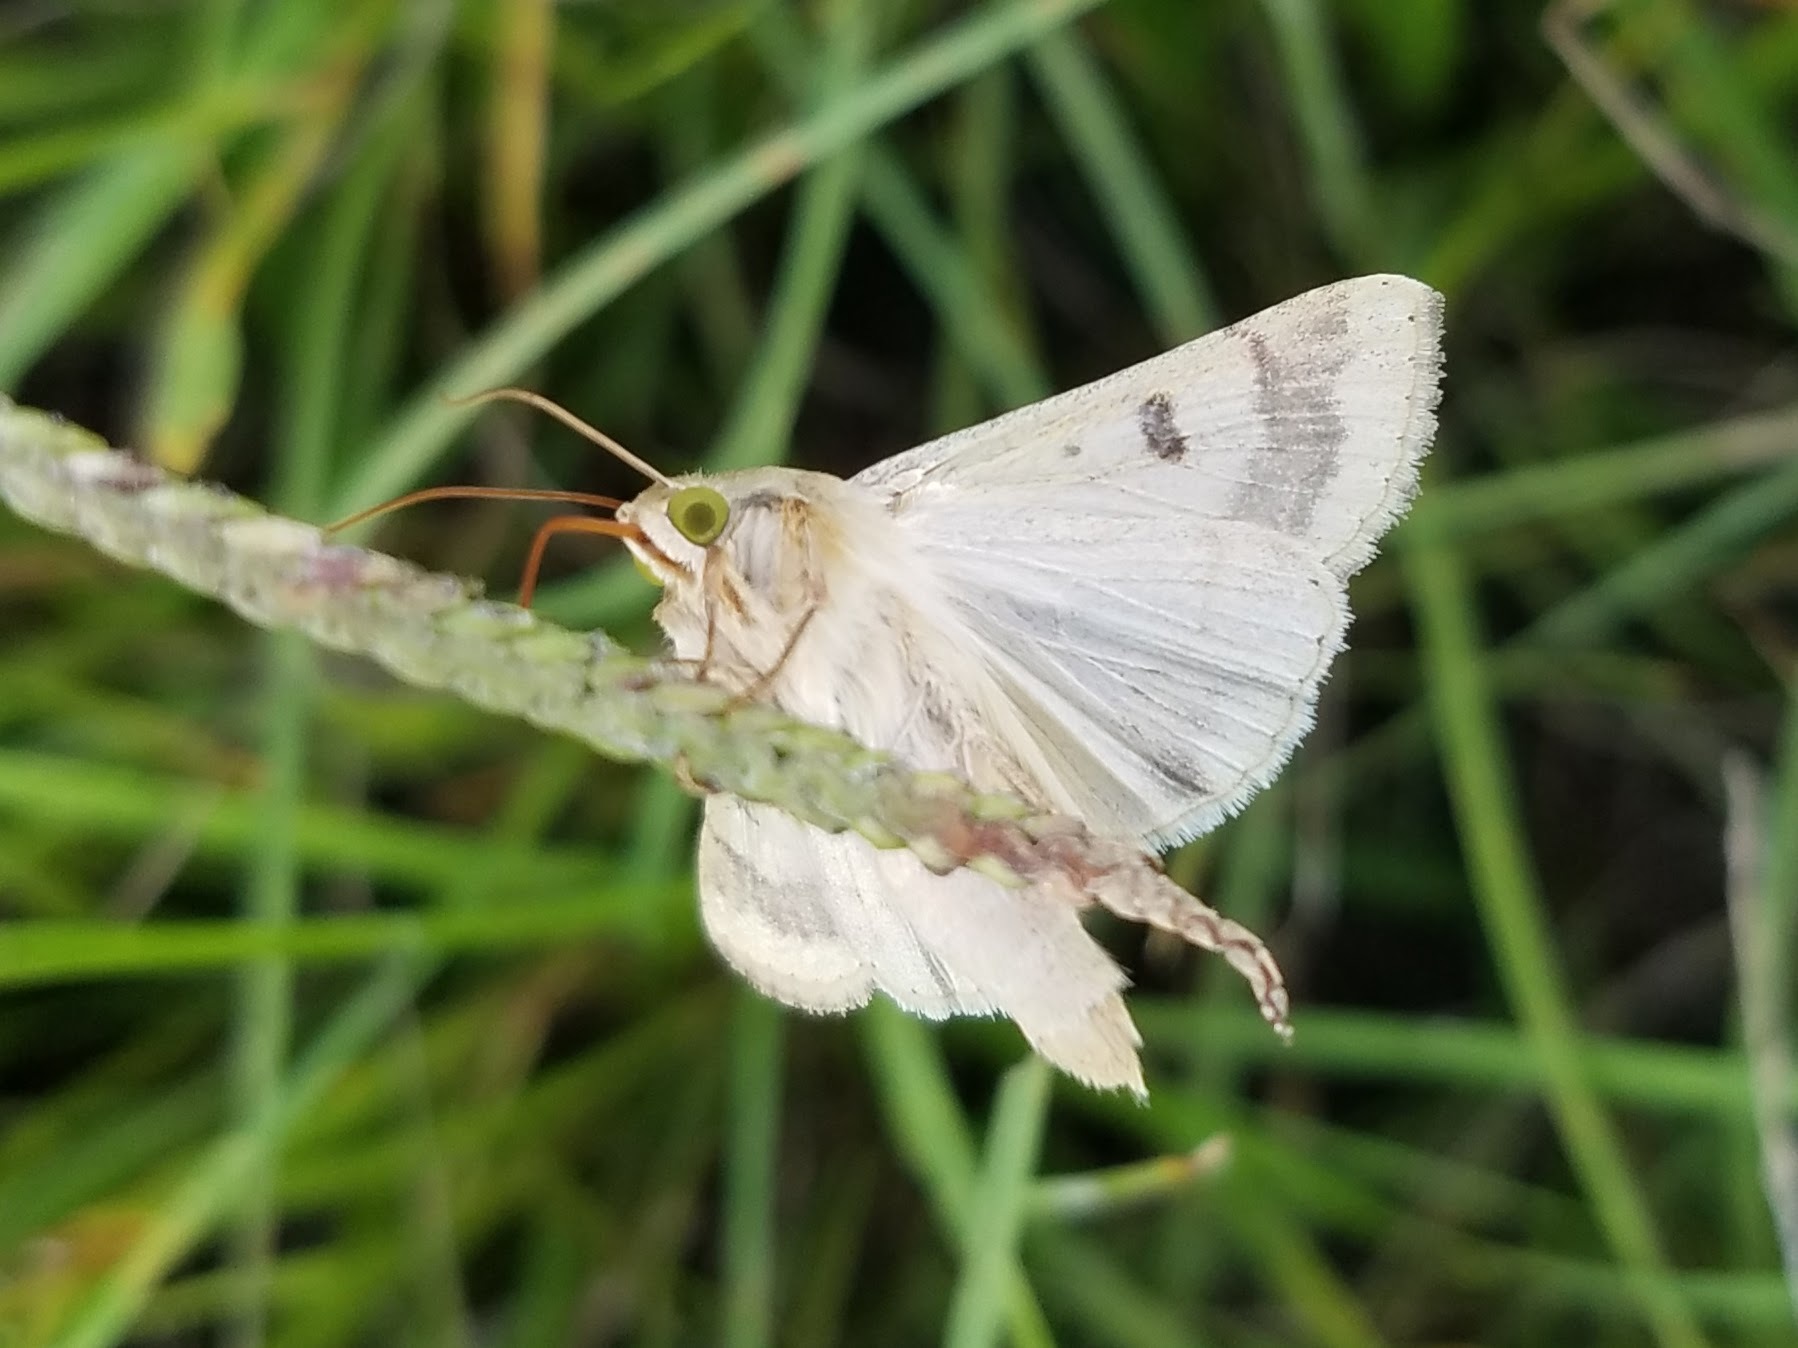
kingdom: Animalia
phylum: Arthropoda
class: Insecta
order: Lepidoptera
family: Noctuidae
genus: Helicoverpa
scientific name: Helicoverpa zea
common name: Bollworm
